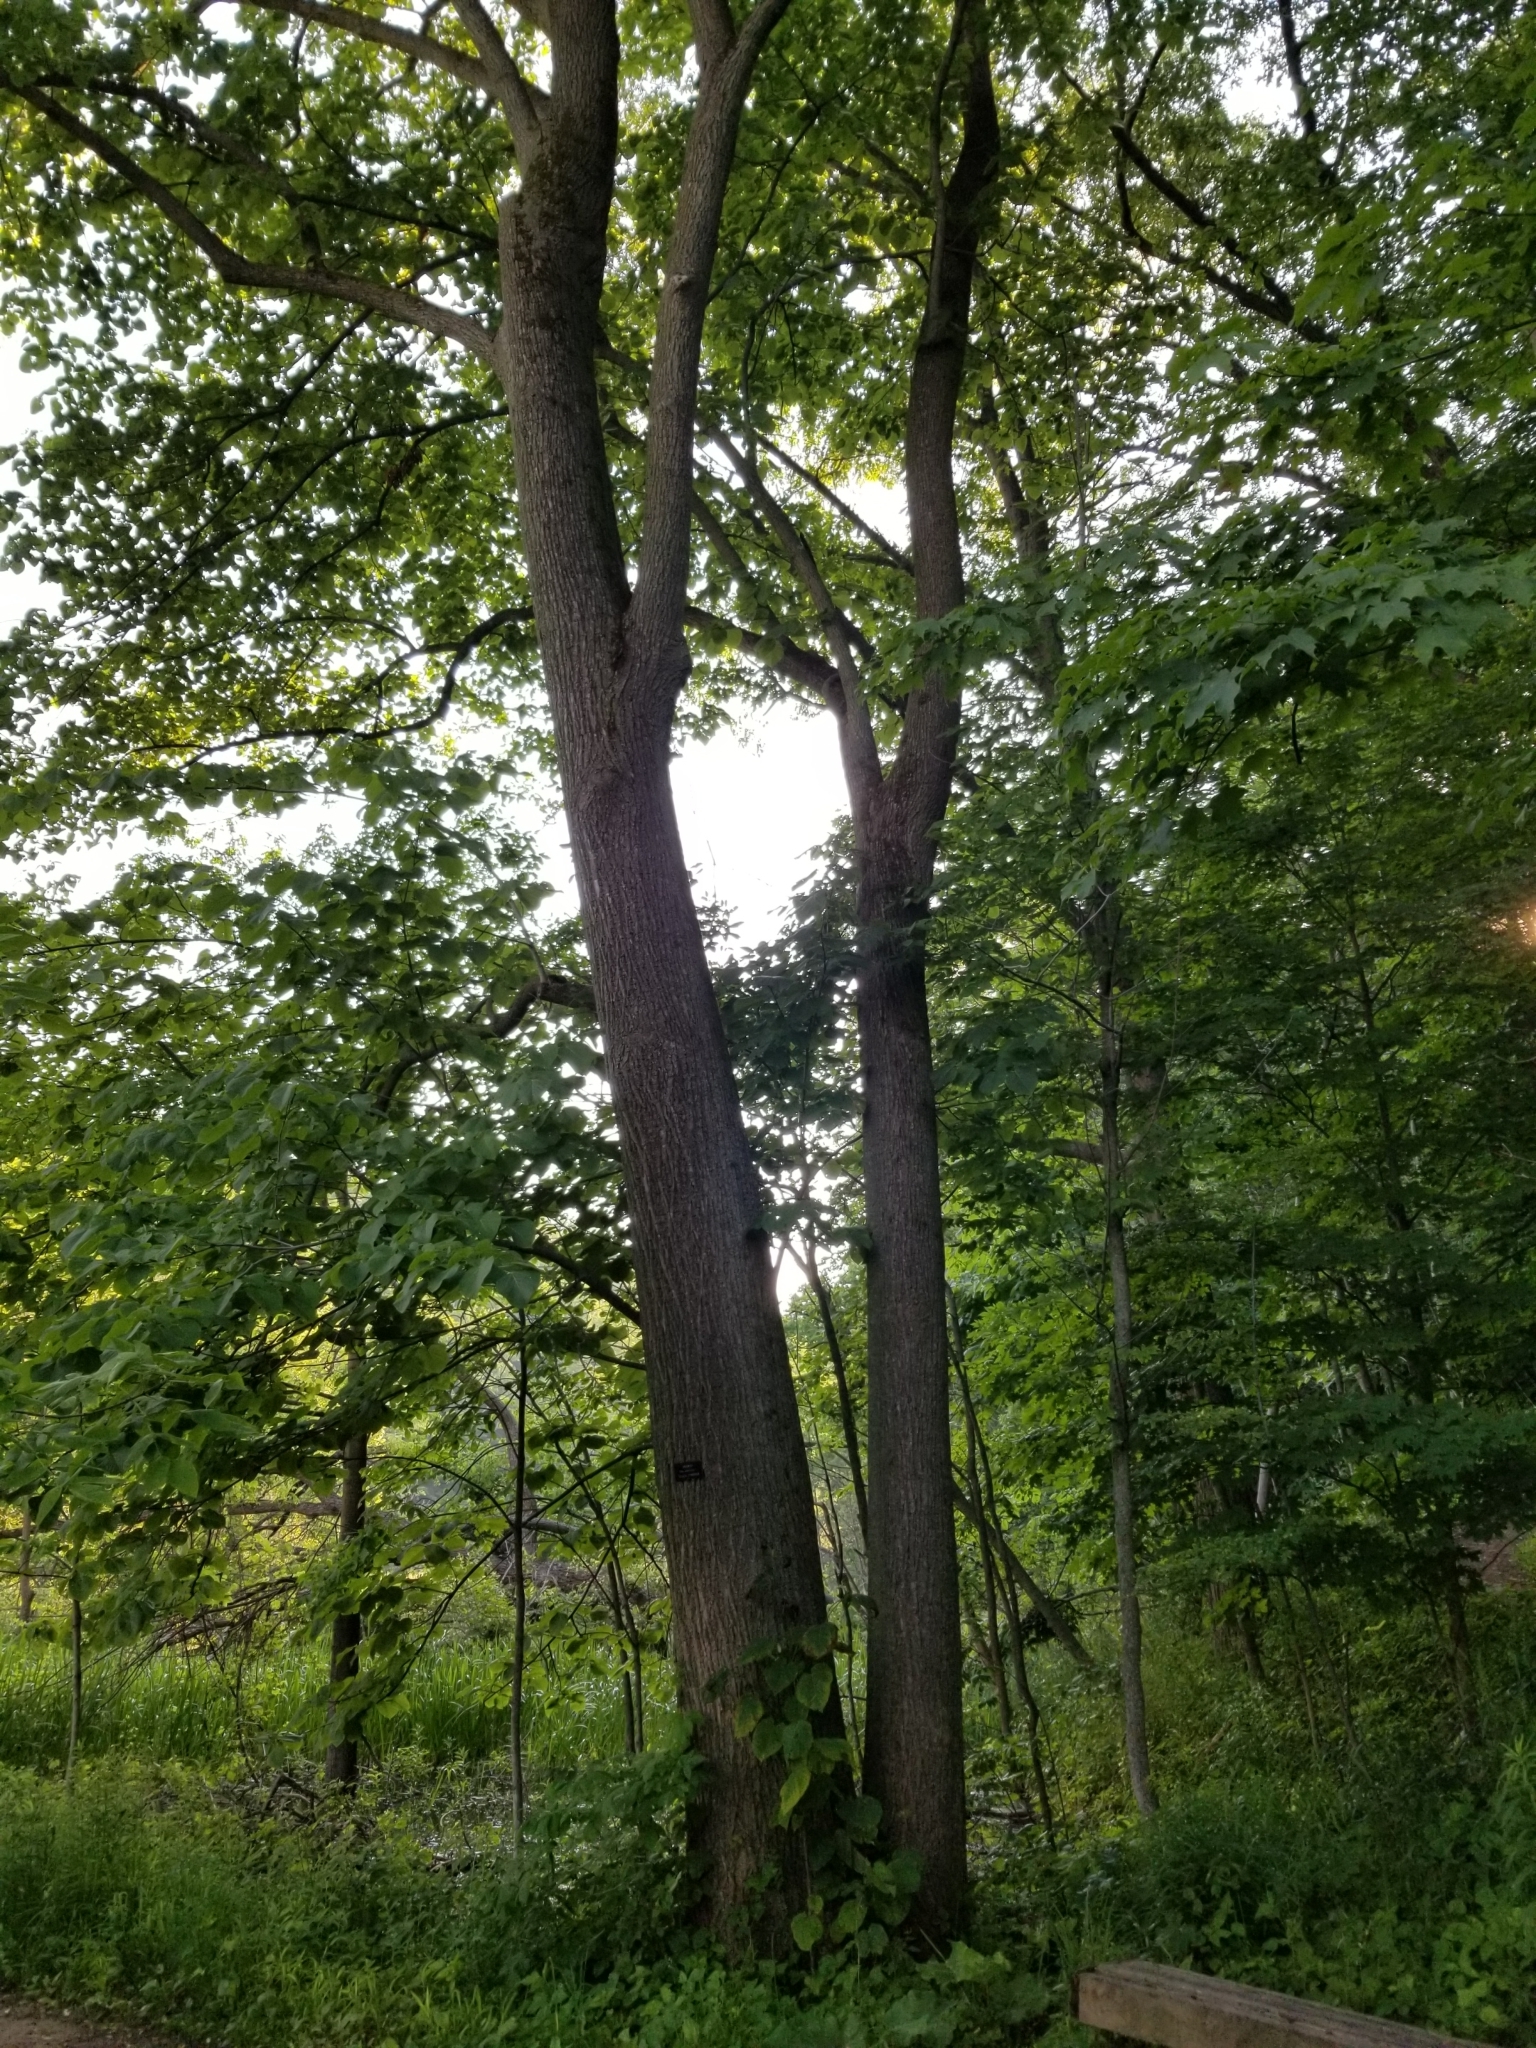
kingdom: Plantae
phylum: Tracheophyta
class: Magnoliopsida
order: Malvales
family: Malvaceae
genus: Tilia
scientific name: Tilia americana
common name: Basswood
